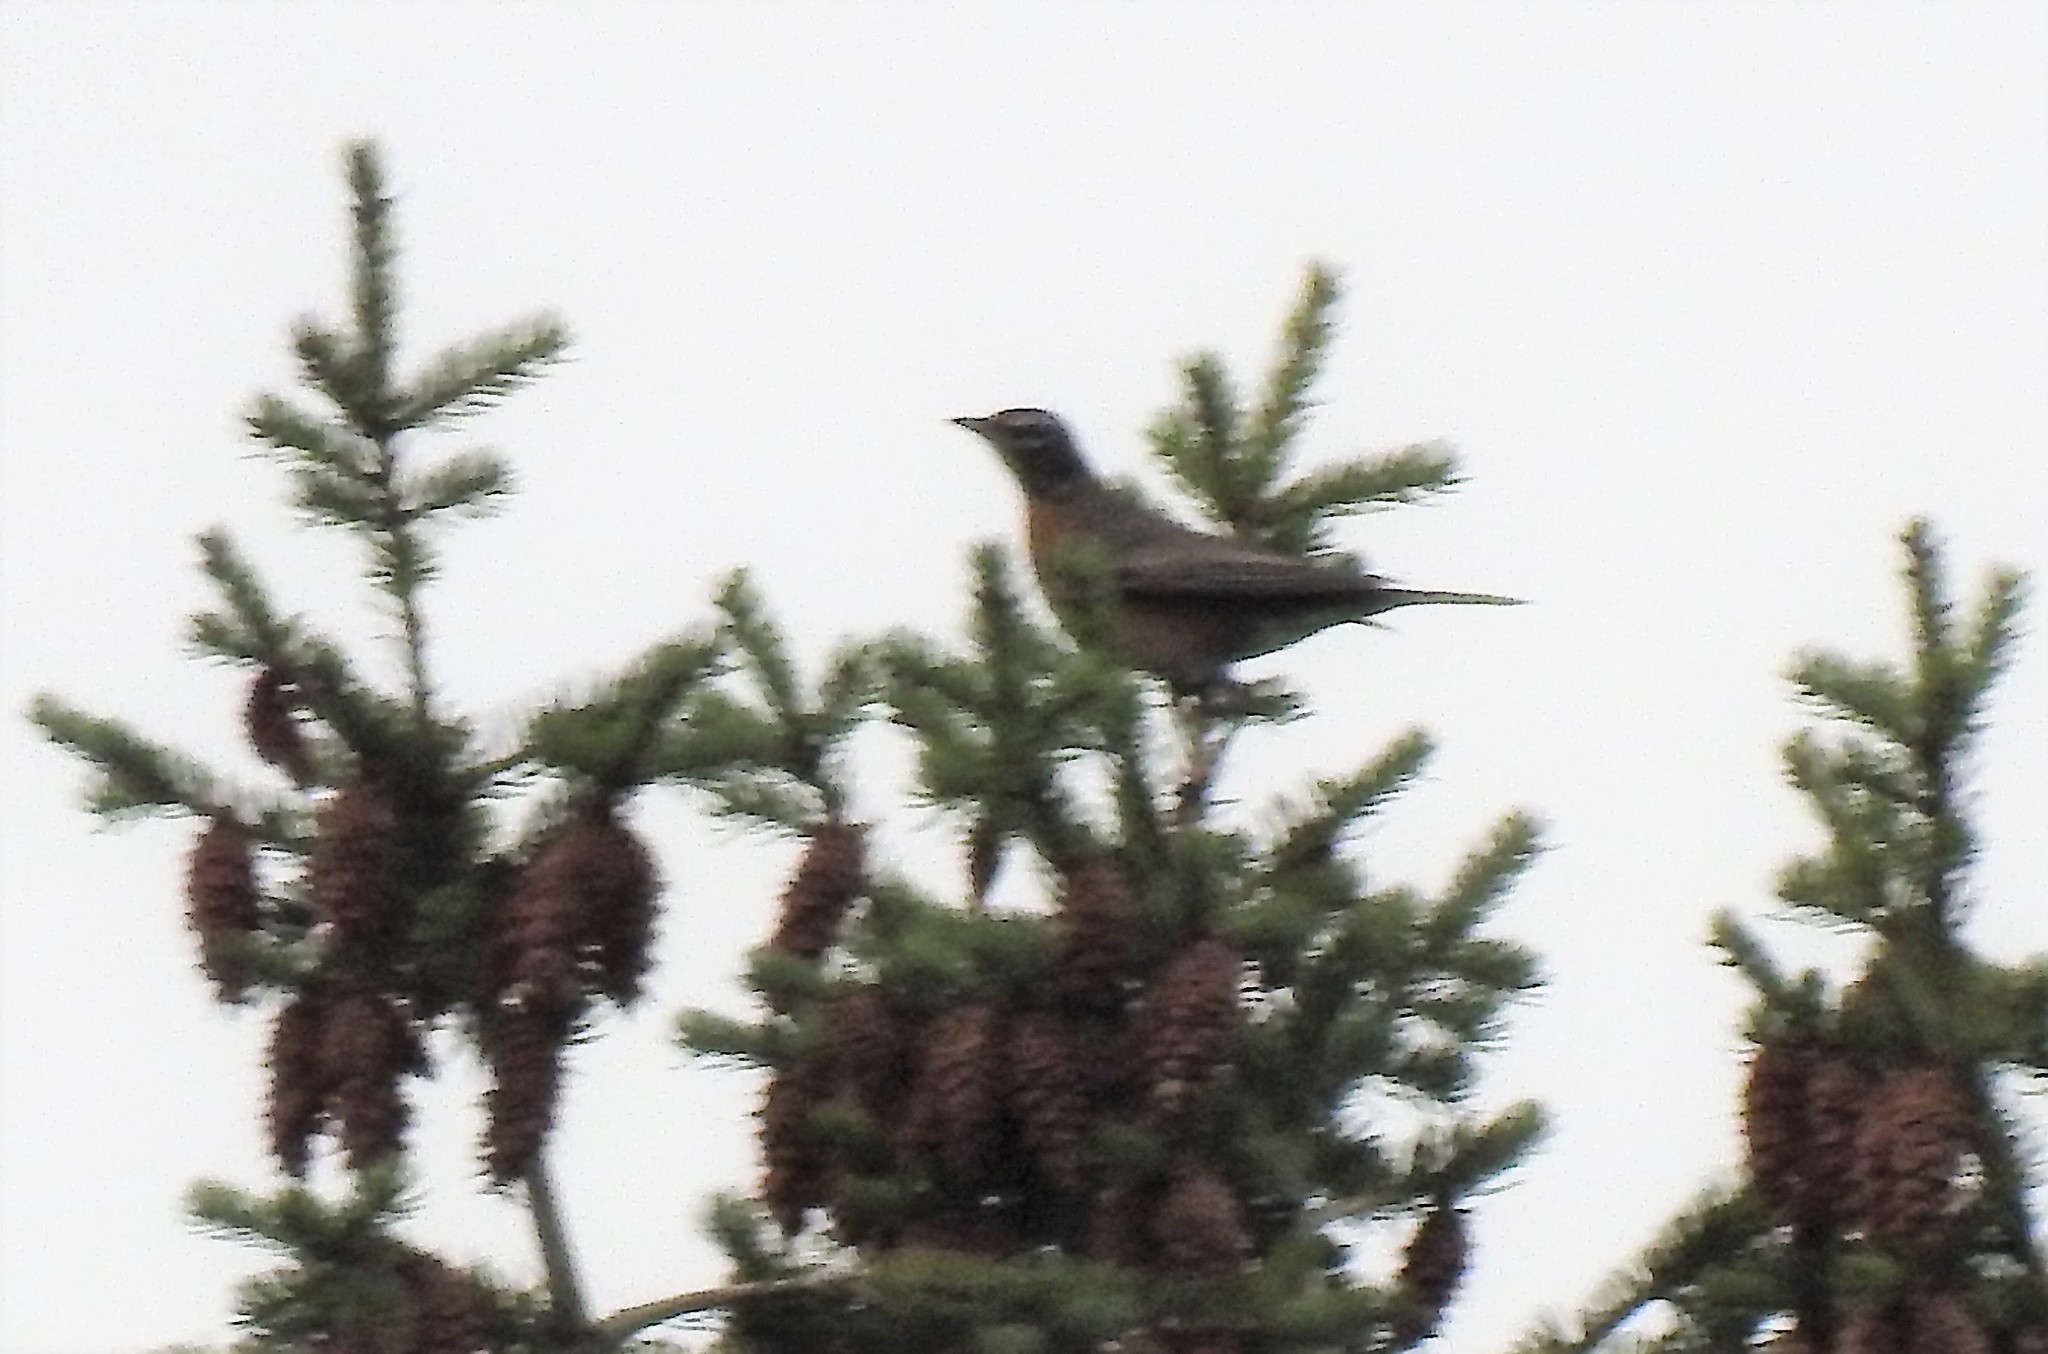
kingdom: Animalia
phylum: Chordata
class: Aves
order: Passeriformes
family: Turdidae
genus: Turdus
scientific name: Turdus migratorius
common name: American robin
